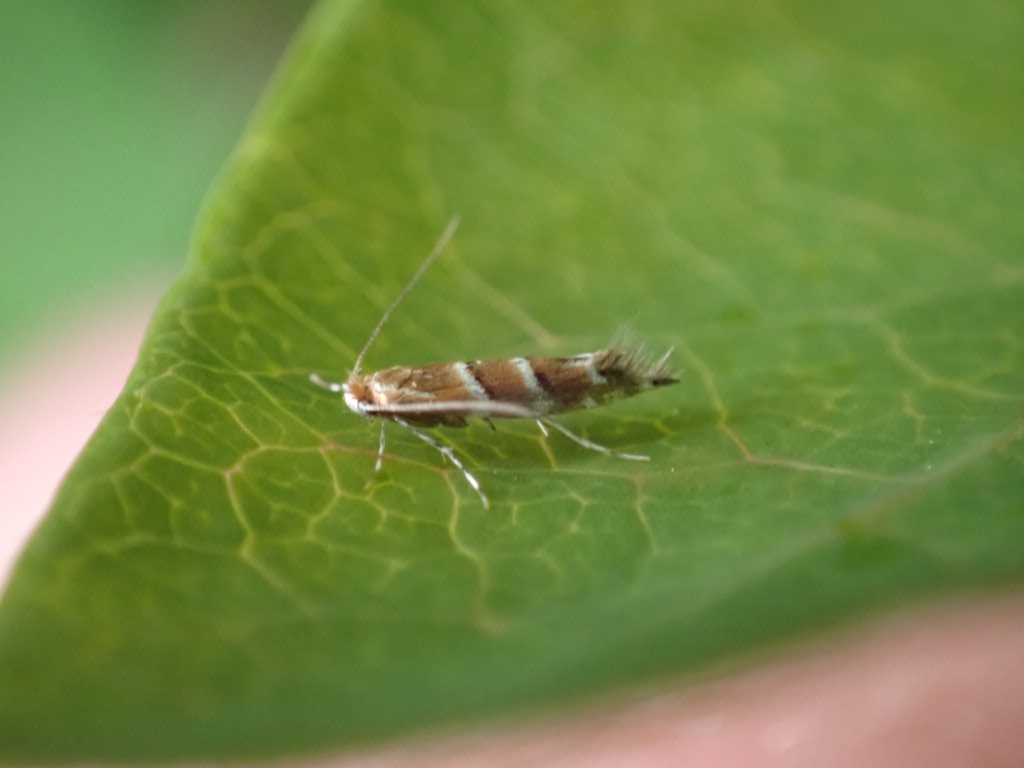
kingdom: Animalia
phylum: Arthropoda
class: Insecta
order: Lepidoptera
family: Gracillariidae
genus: Cameraria
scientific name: Cameraria ohridella
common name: Horse-chestnut leaf-miner
